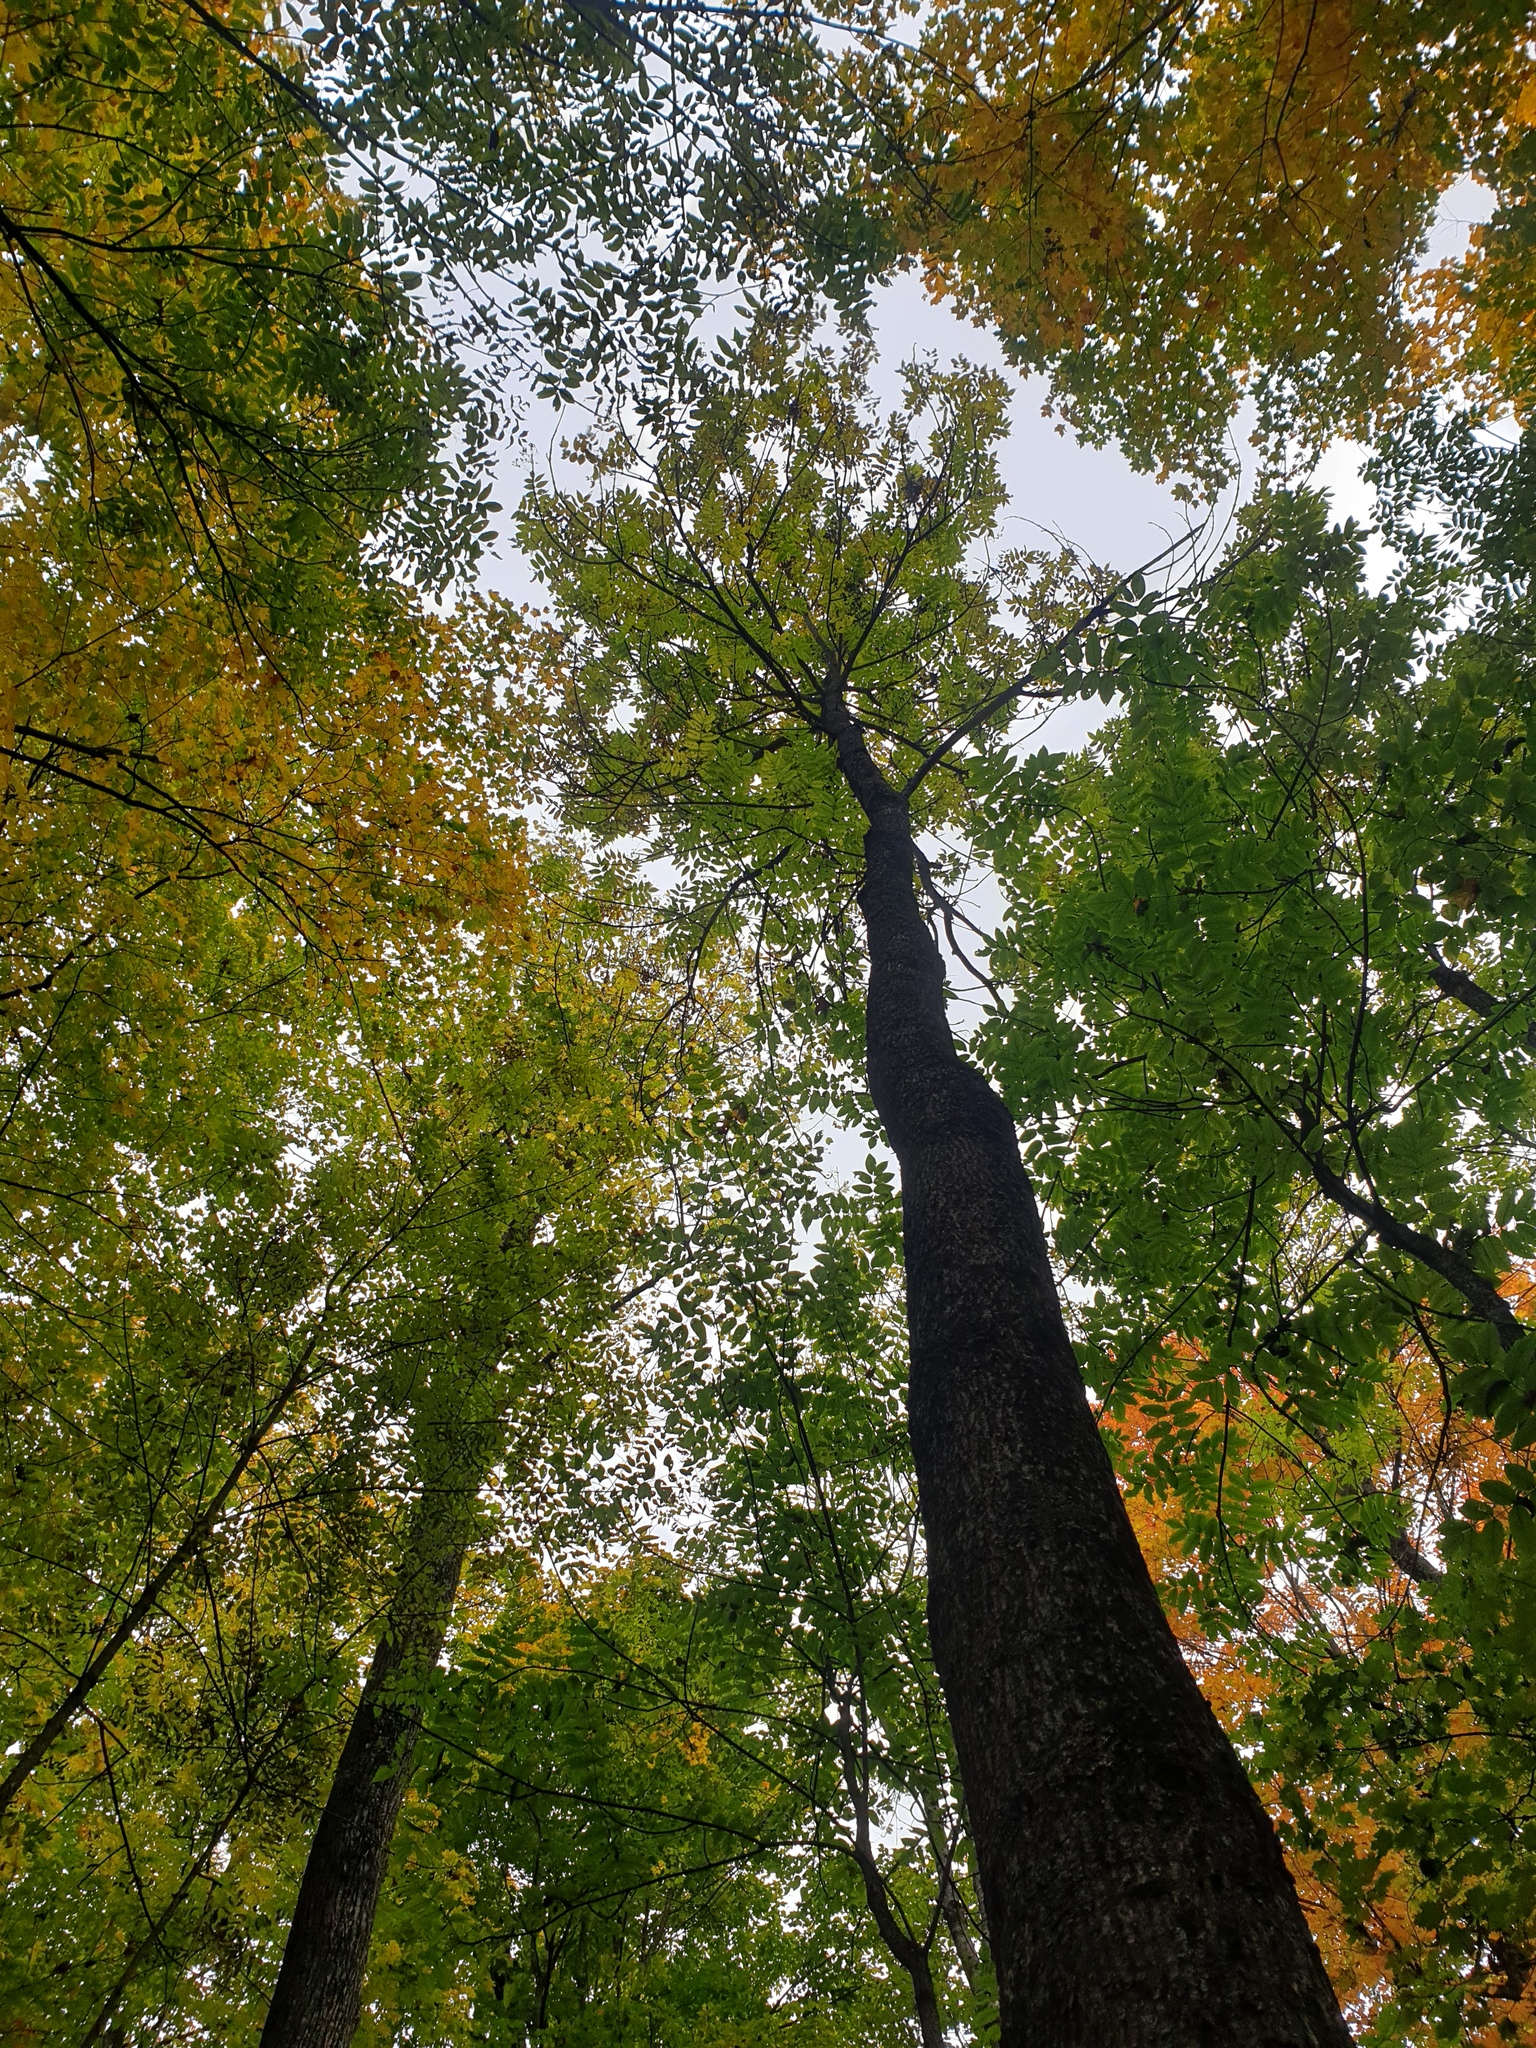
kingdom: Plantae
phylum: Tracheophyta
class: Magnoliopsida
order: Lamiales
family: Oleaceae
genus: Fraxinus
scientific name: Fraxinus nigra
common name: Black ash
